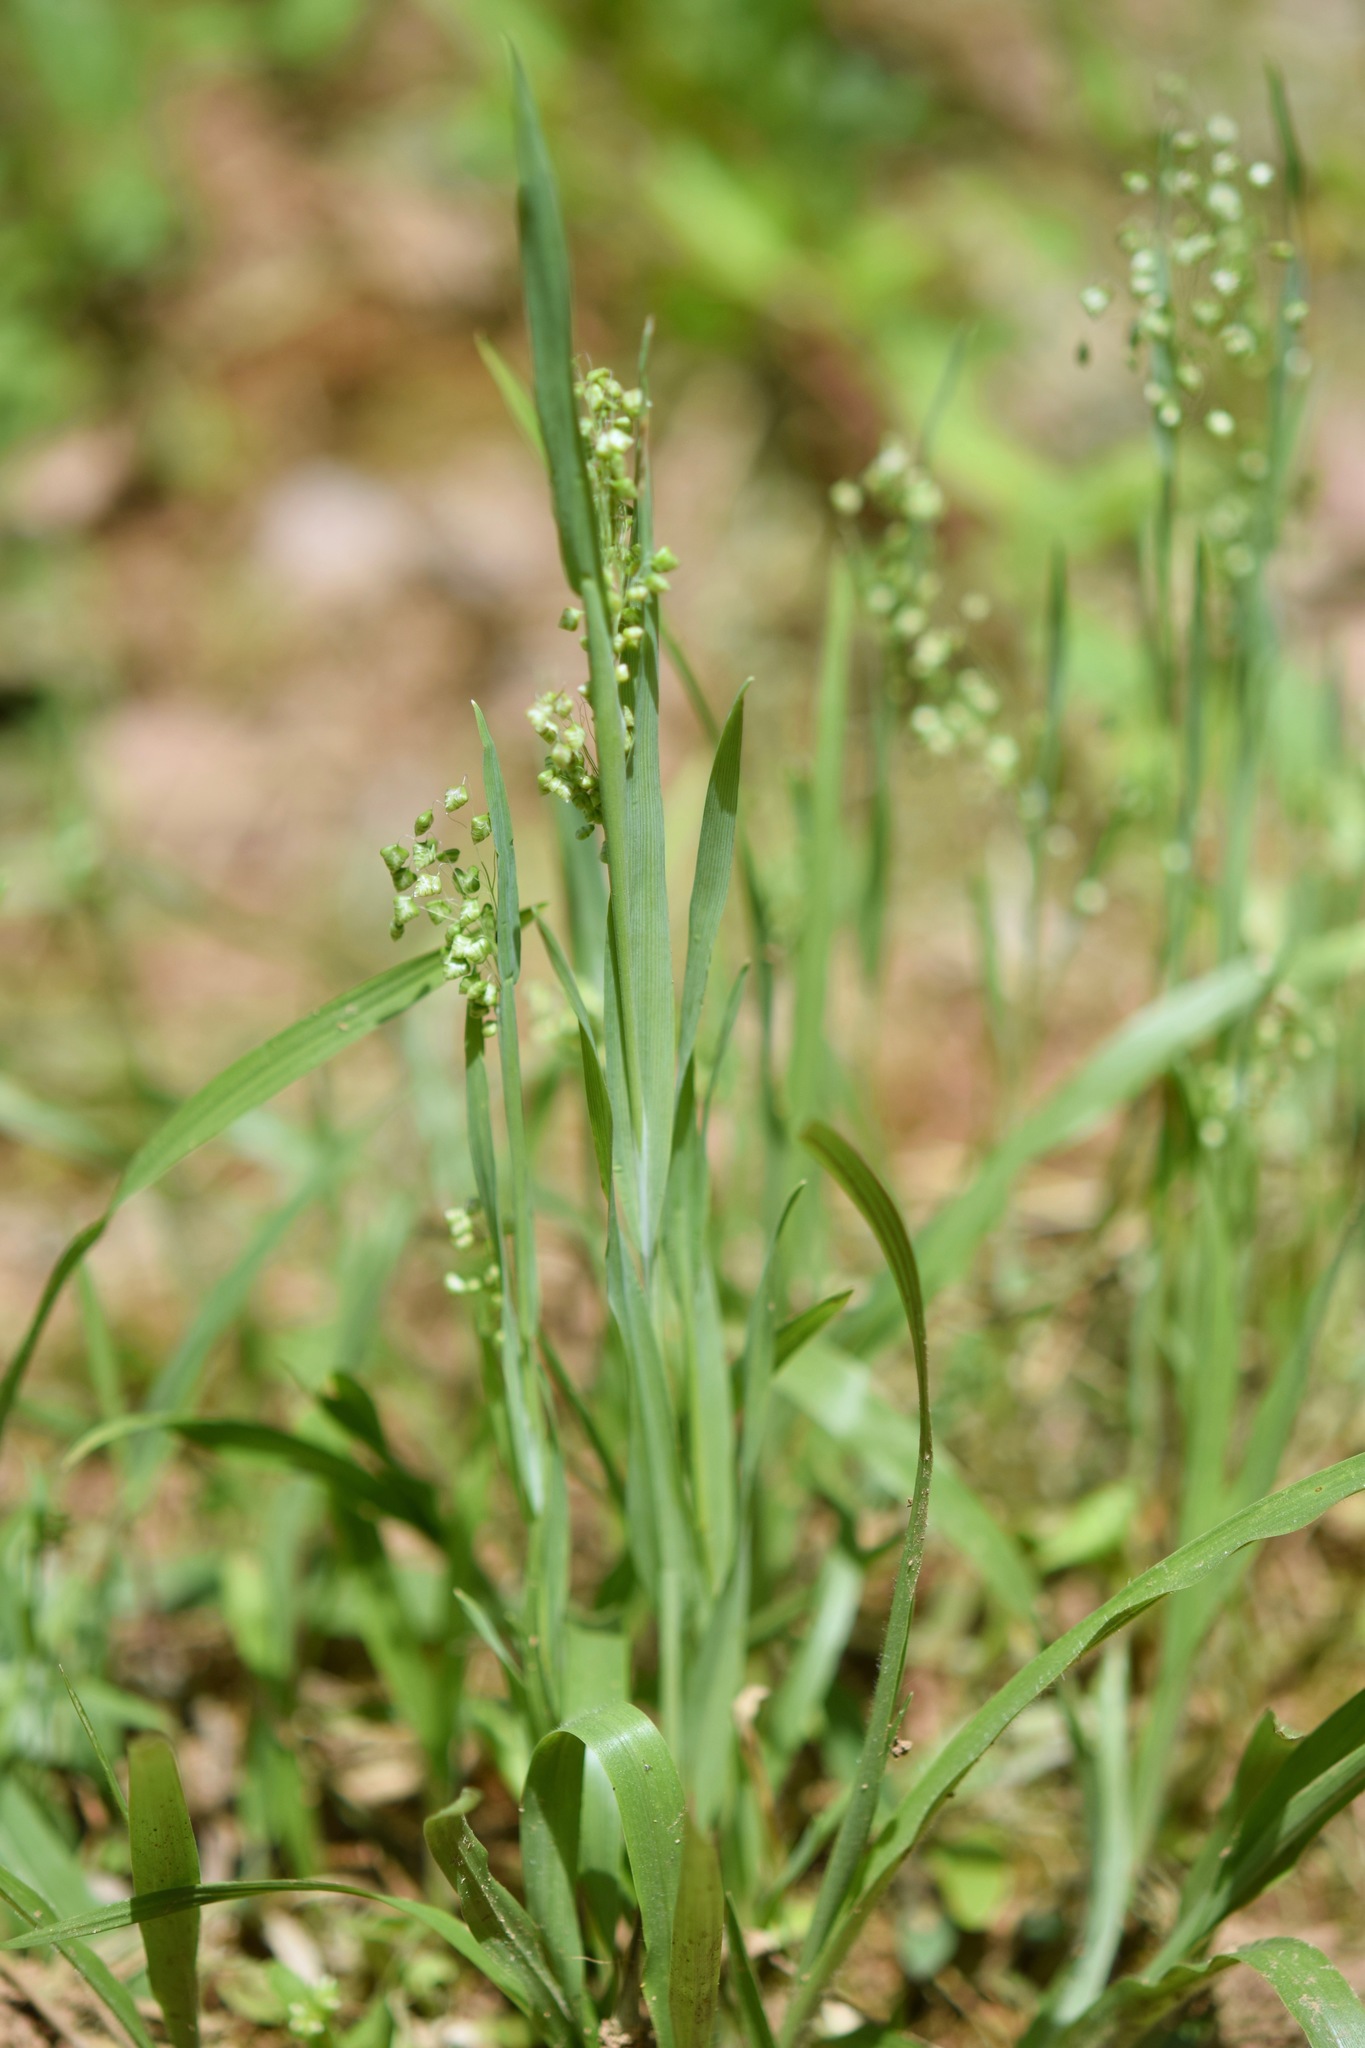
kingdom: Plantae
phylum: Tracheophyta
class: Liliopsida
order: Poales
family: Poaceae
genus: Briza
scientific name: Briza minor
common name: Lesser quaking-grass
